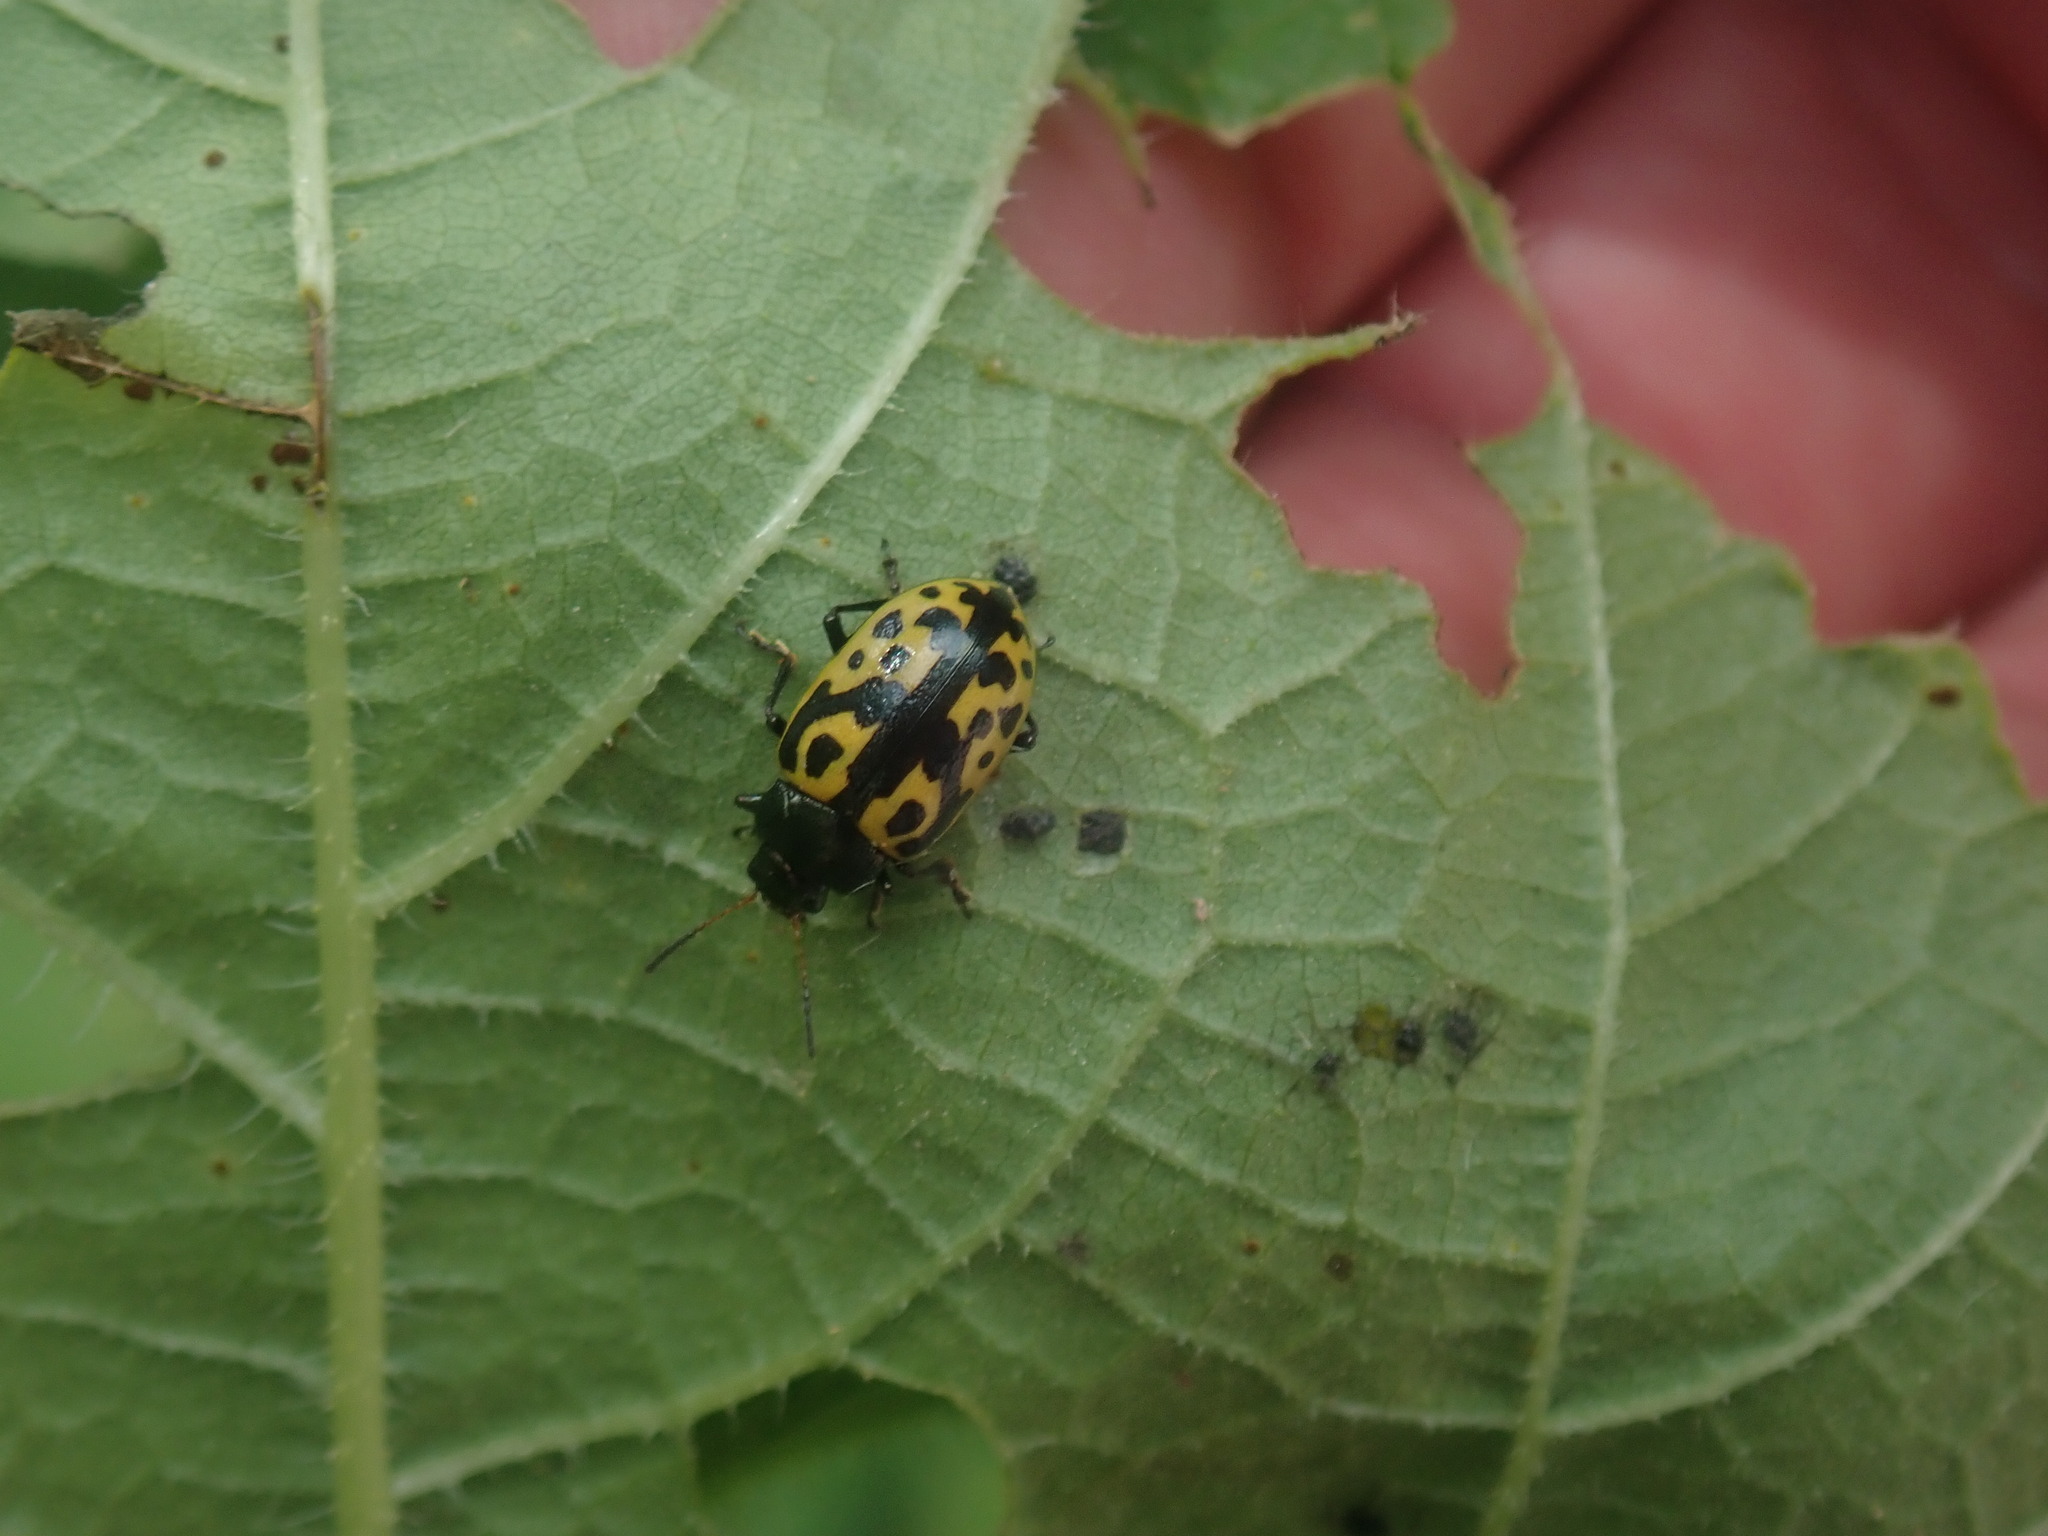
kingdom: Animalia
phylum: Arthropoda
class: Insecta
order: Coleoptera
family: Chrysomelidae
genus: Calligrapha
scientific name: Calligrapha
